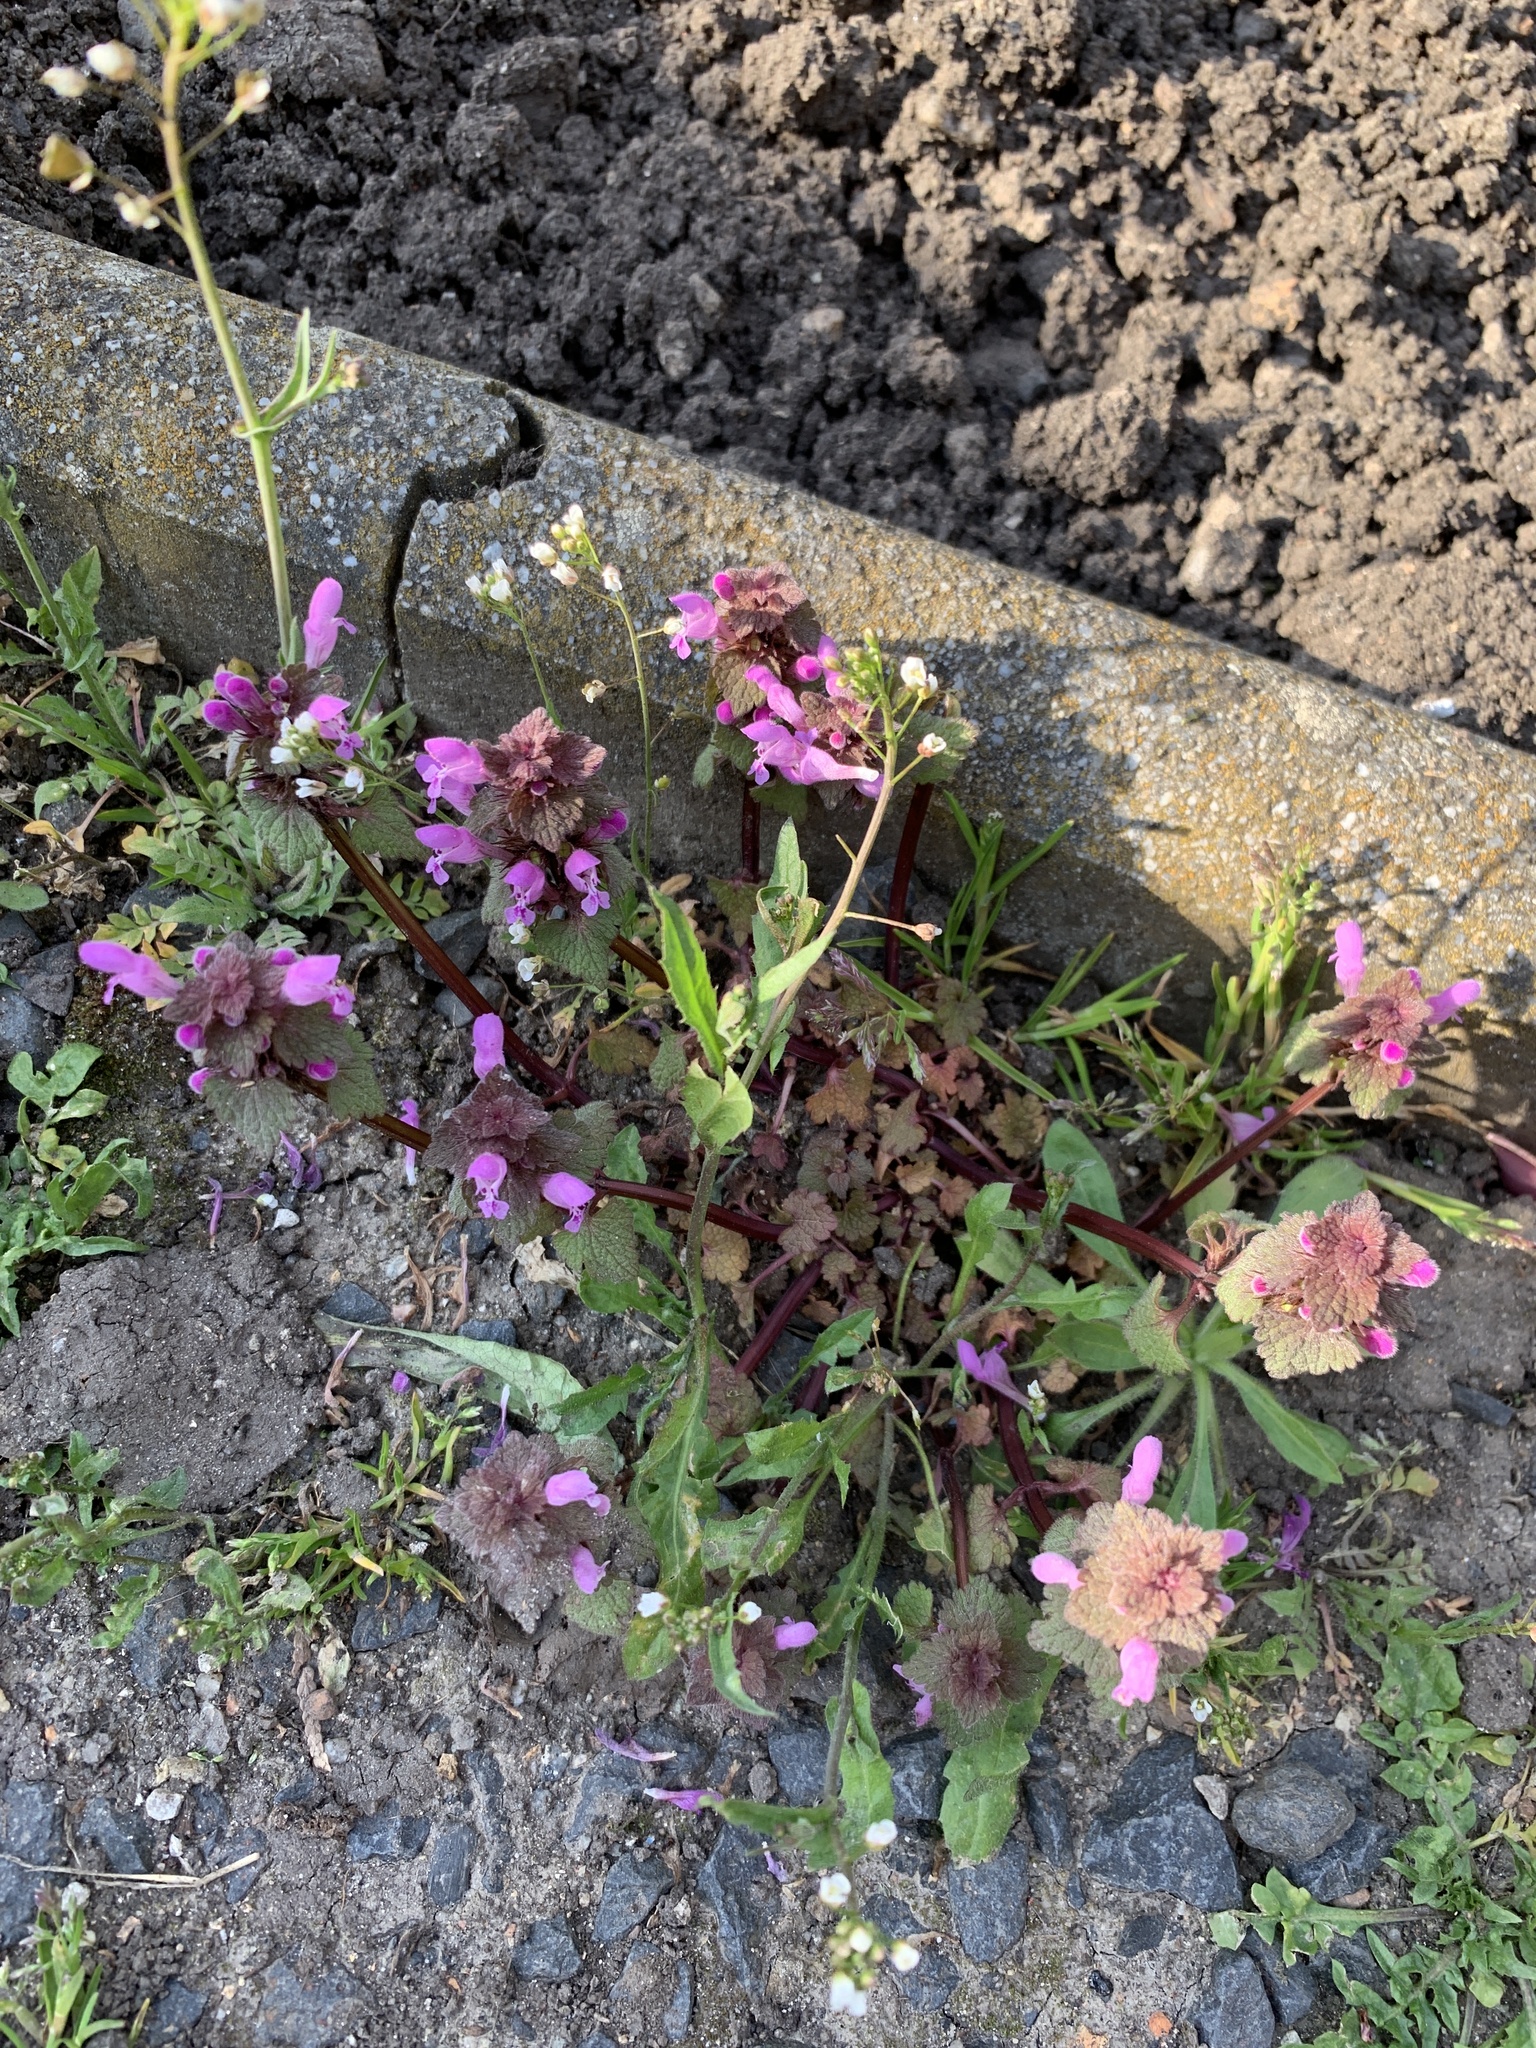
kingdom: Plantae
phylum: Tracheophyta
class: Magnoliopsida
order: Lamiales
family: Lamiaceae
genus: Lamium
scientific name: Lamium purpureum
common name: Red dead-nettle
